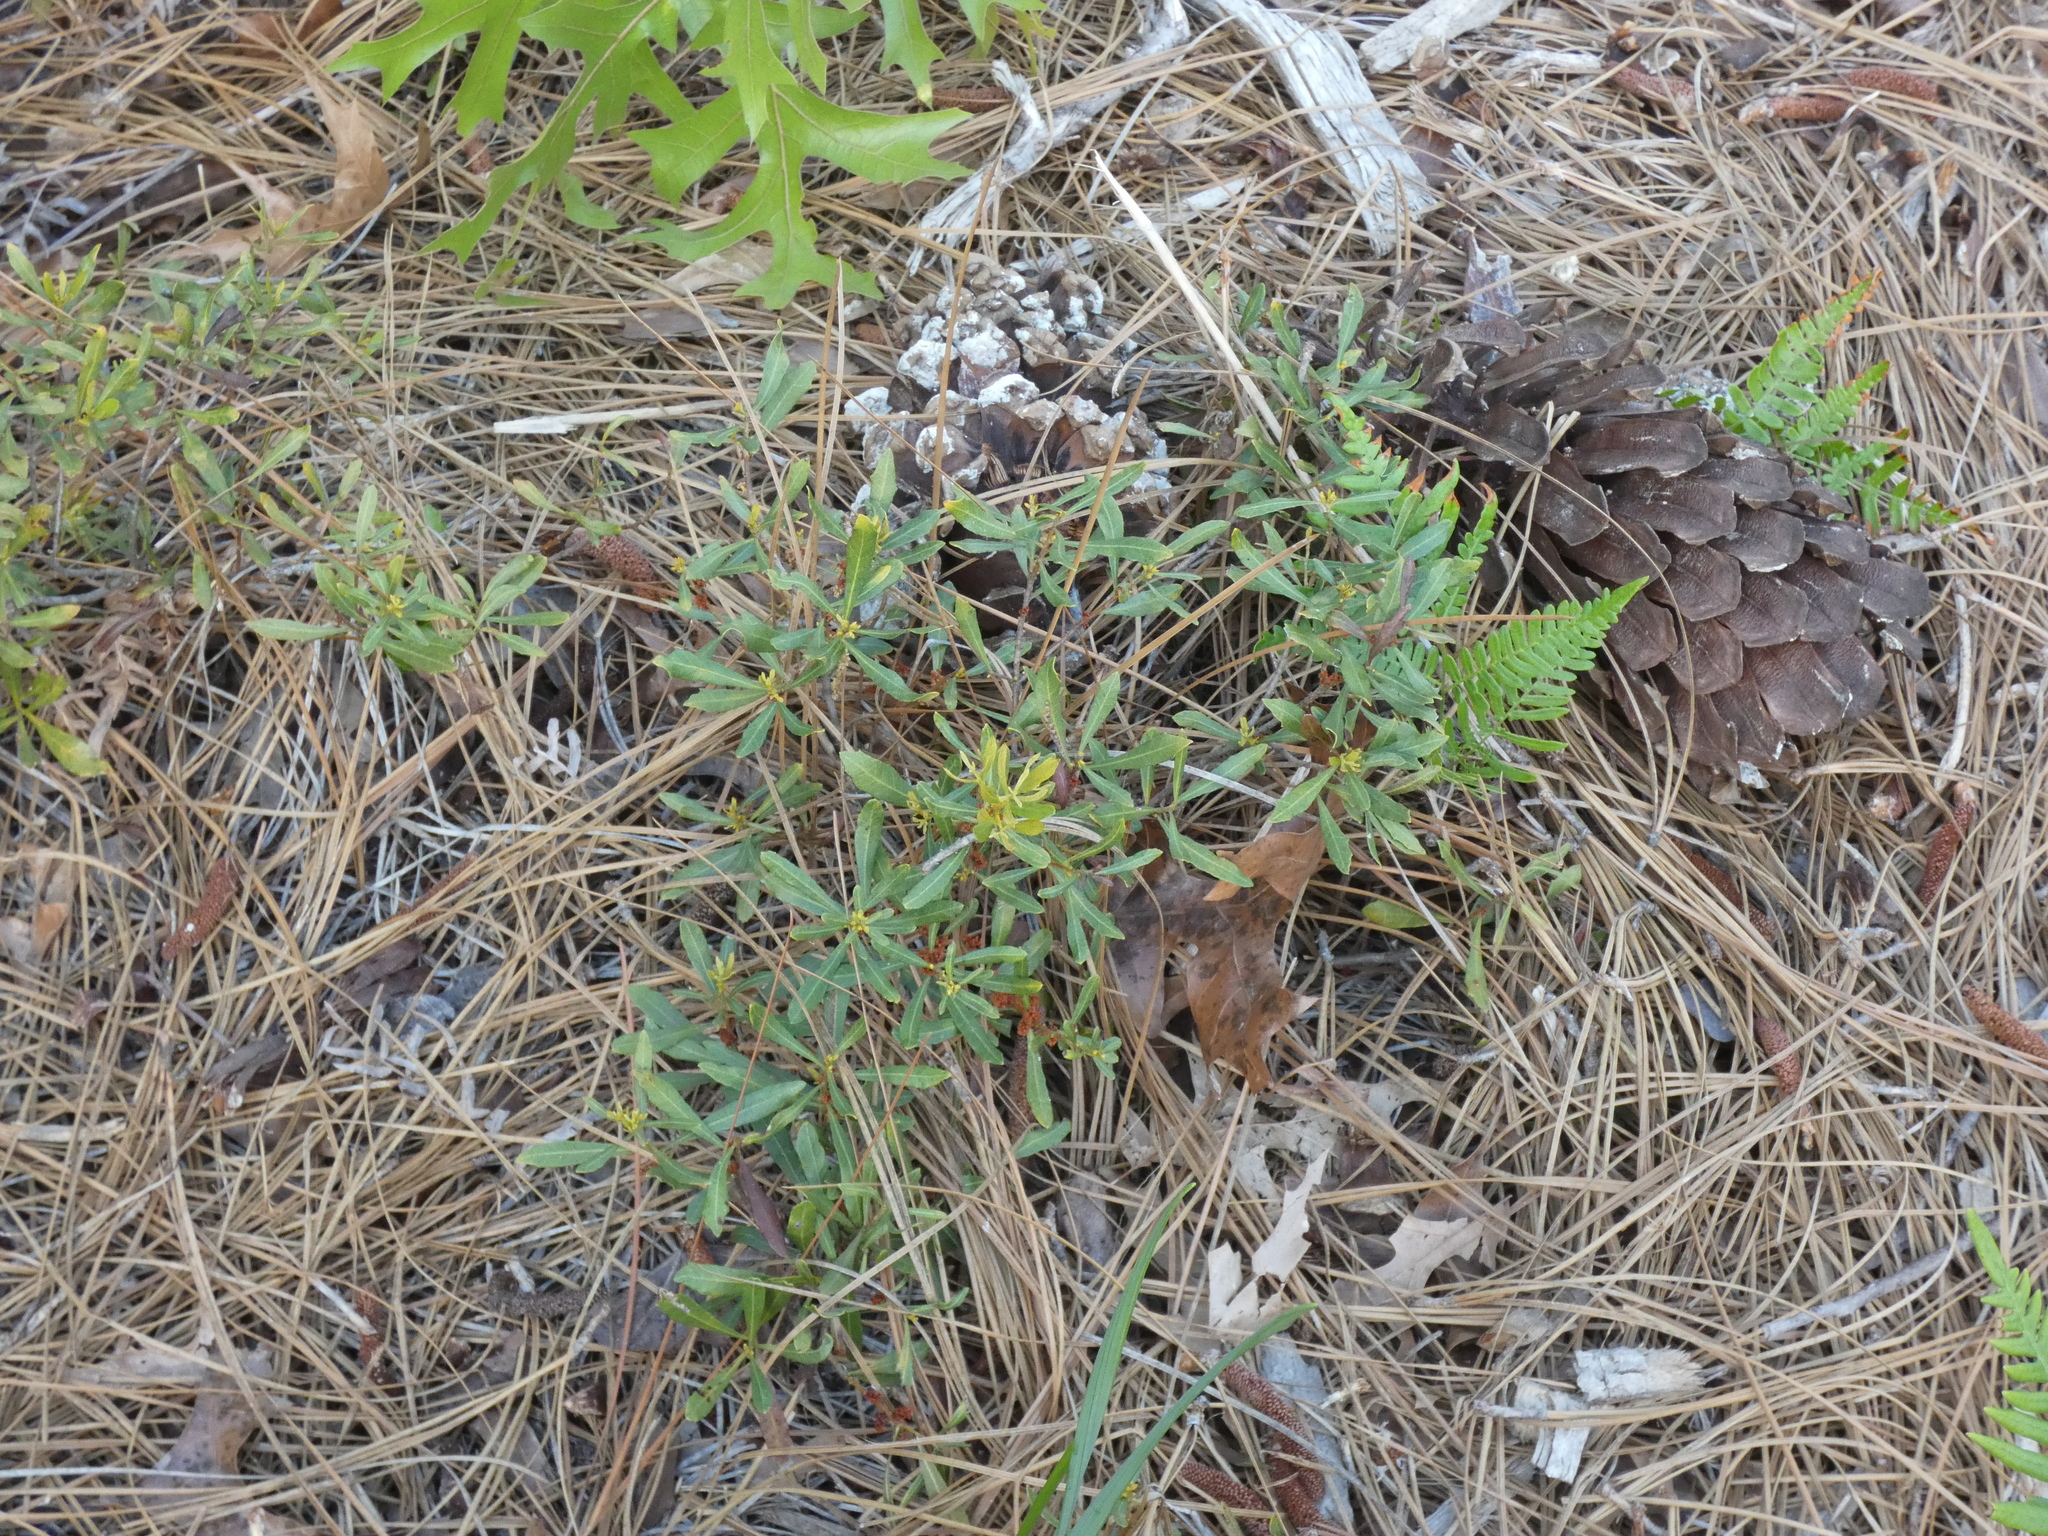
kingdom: Plantae
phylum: Tracheophyta
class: Magnoliopsida
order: Fagales
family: Myricaceae
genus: Morella
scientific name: Morella cerifera
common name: Wax myrtle
